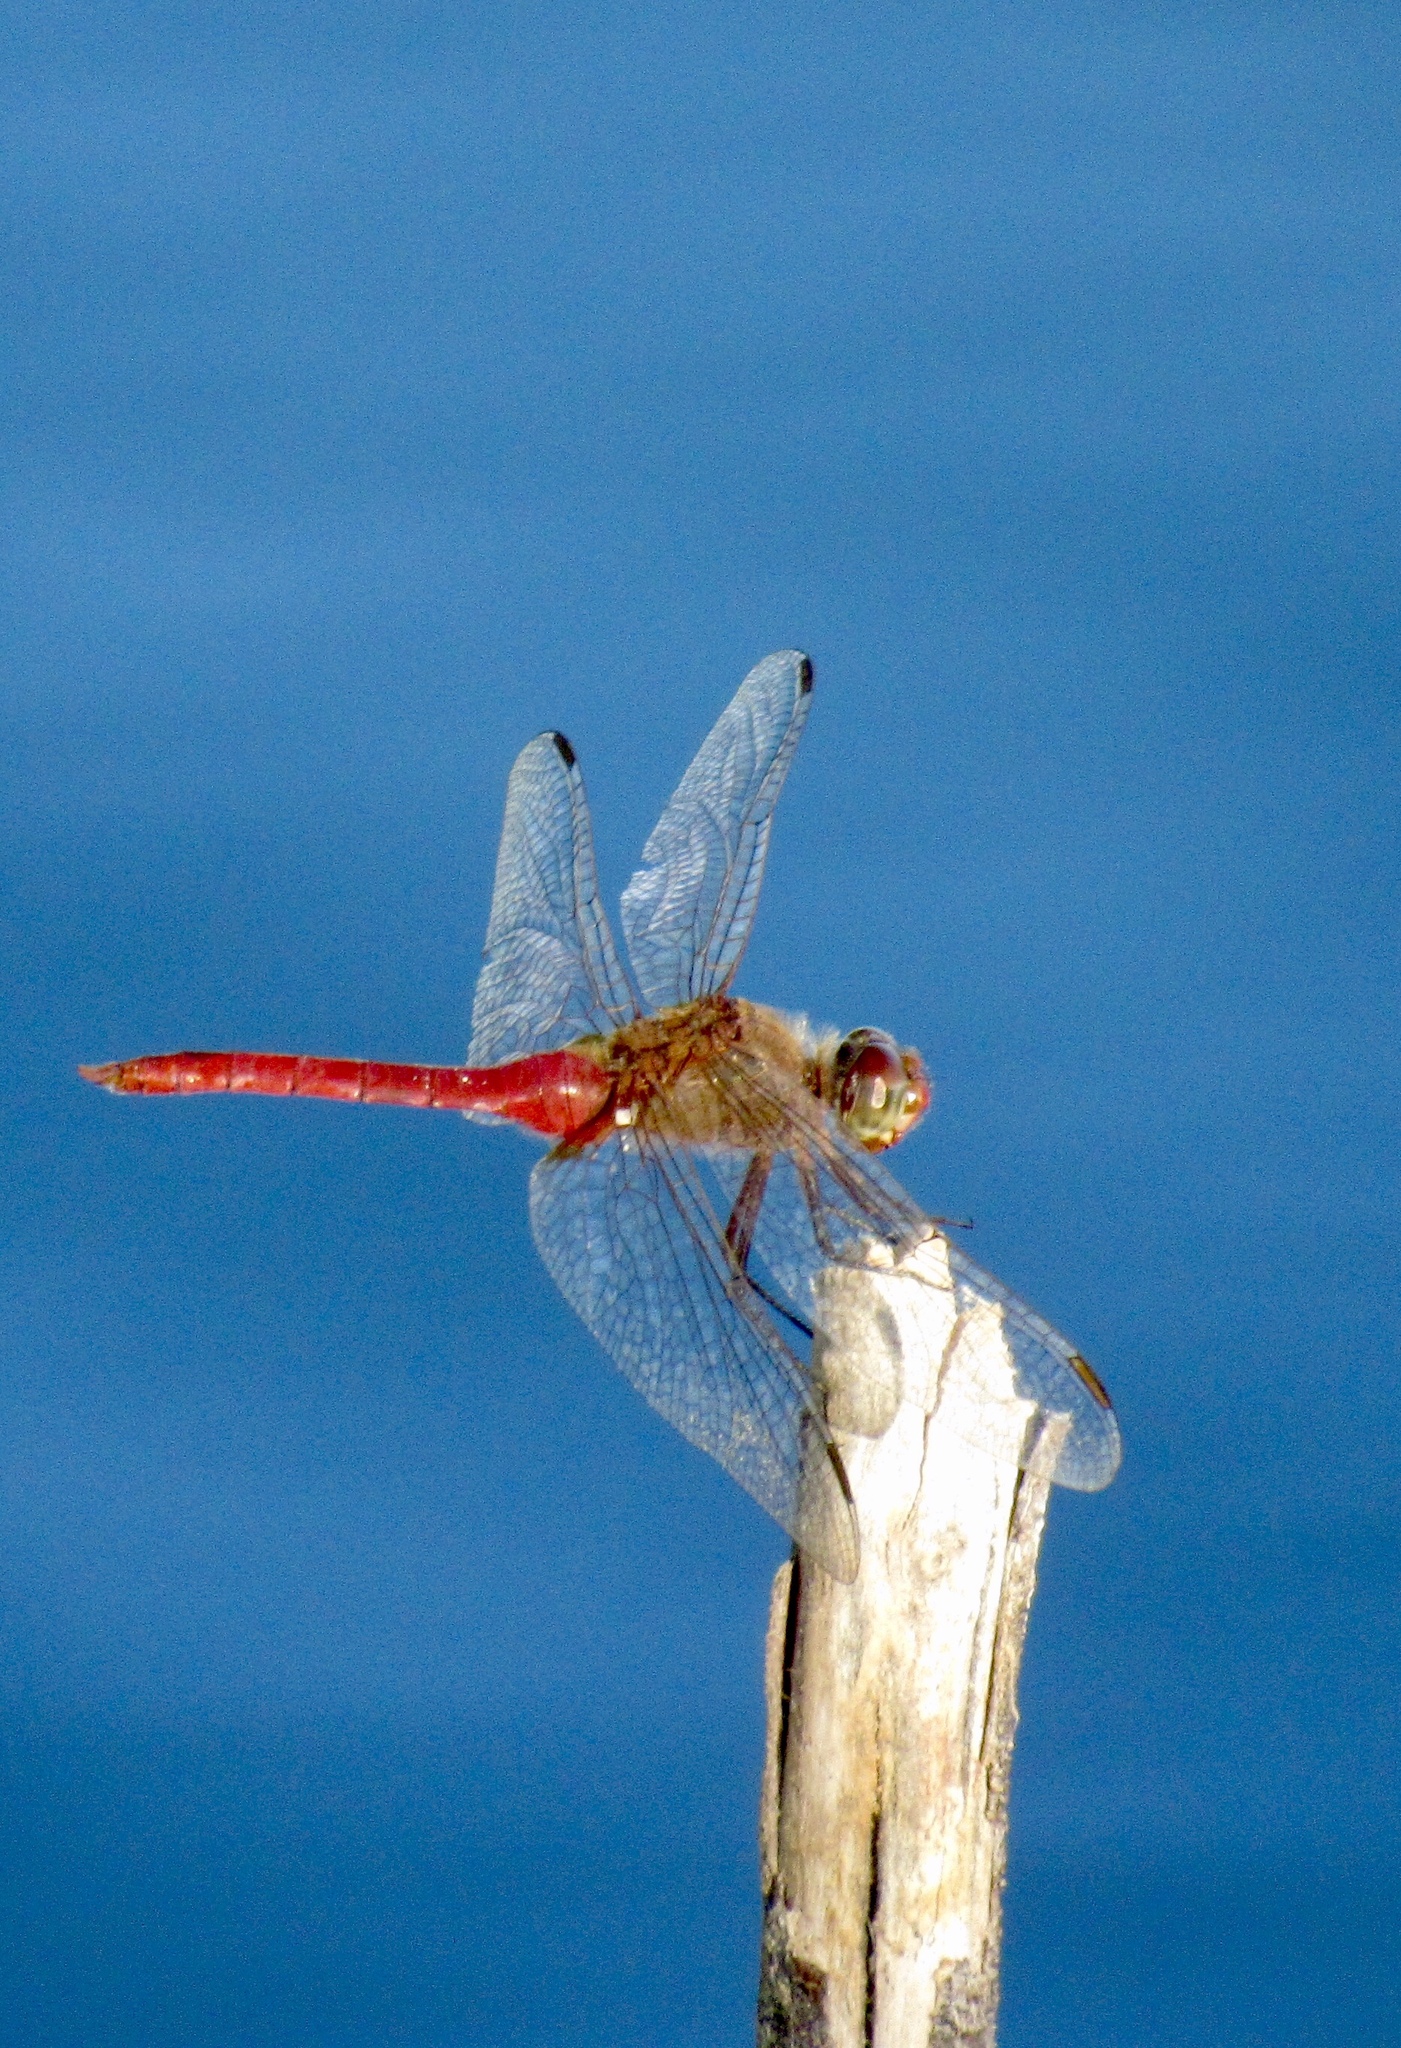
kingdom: Animalia
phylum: Arthropoda
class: Insecta
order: Odonata
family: Libellulidae
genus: Brachymesia
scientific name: Brachymesia furcata
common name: Red-taled pennant
